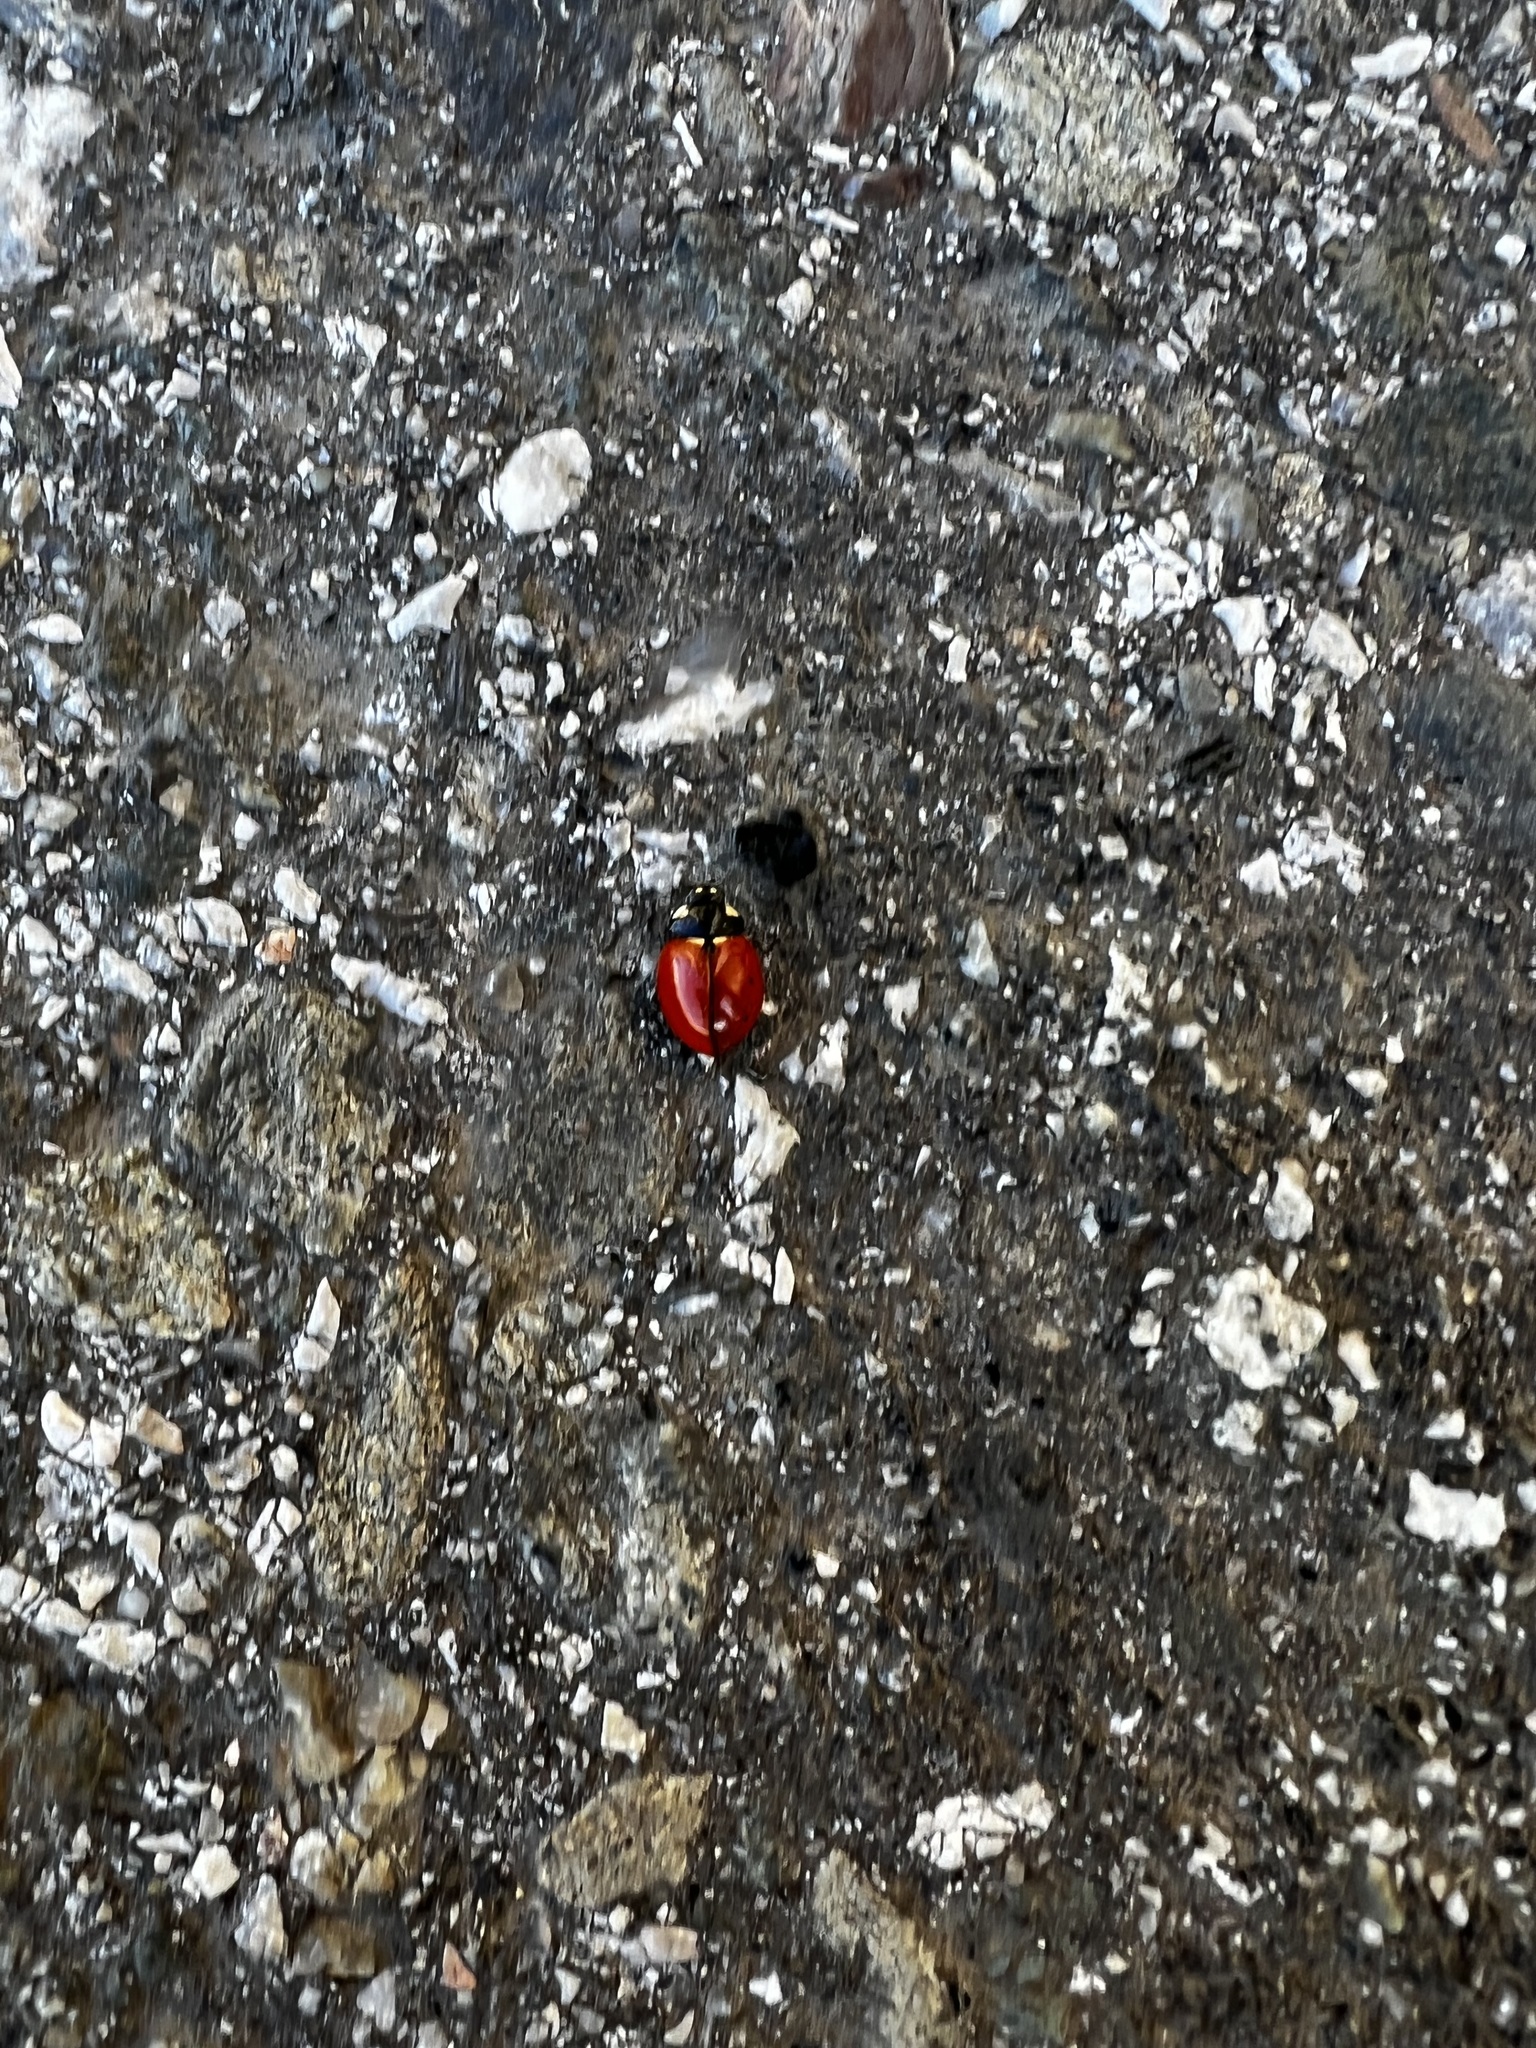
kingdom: Animalia
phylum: Arthropoda
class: Insecta
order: Coleoptera
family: Coccinellidae
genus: Coccinella
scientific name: Coccinella californica
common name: Lady beetle
